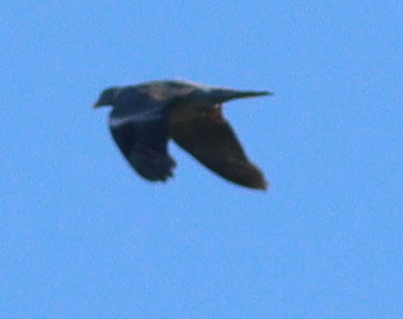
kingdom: Animalia
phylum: Chordata
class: Aves
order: Columbiformes
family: Columbidae
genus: Columba
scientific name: Columba palumbus
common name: Common wood pigeon
